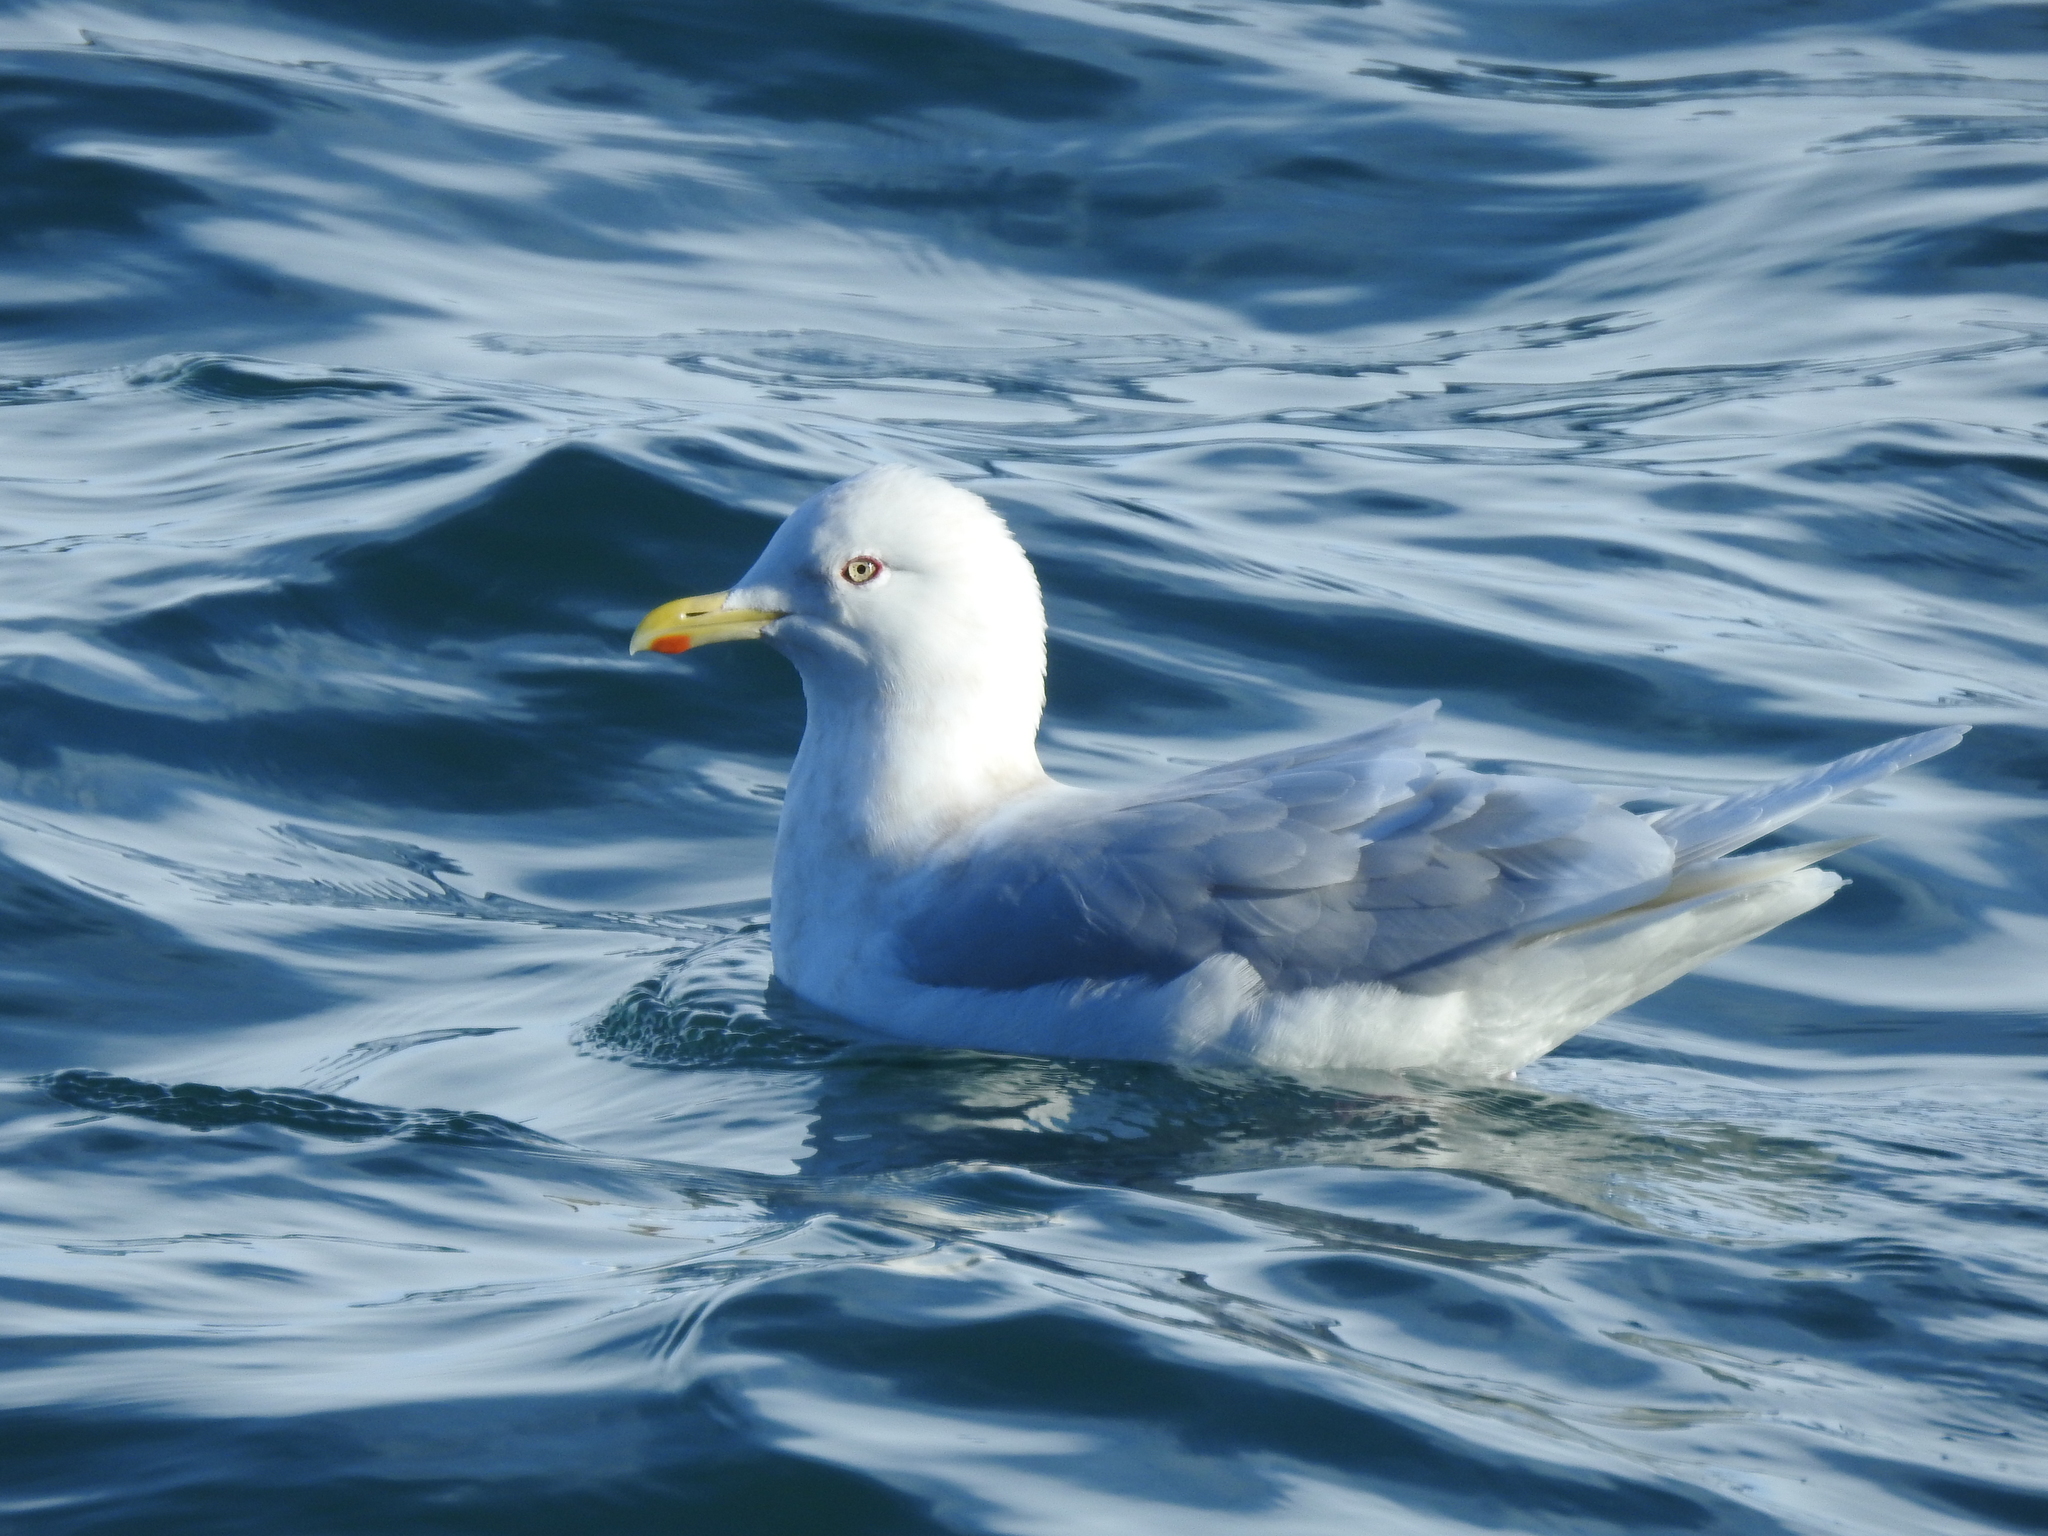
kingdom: Animalia
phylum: Chordata
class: Aves
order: Charadriiformes
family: Laridae
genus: Larus
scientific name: Larus glaucoides
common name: Iceland gull
